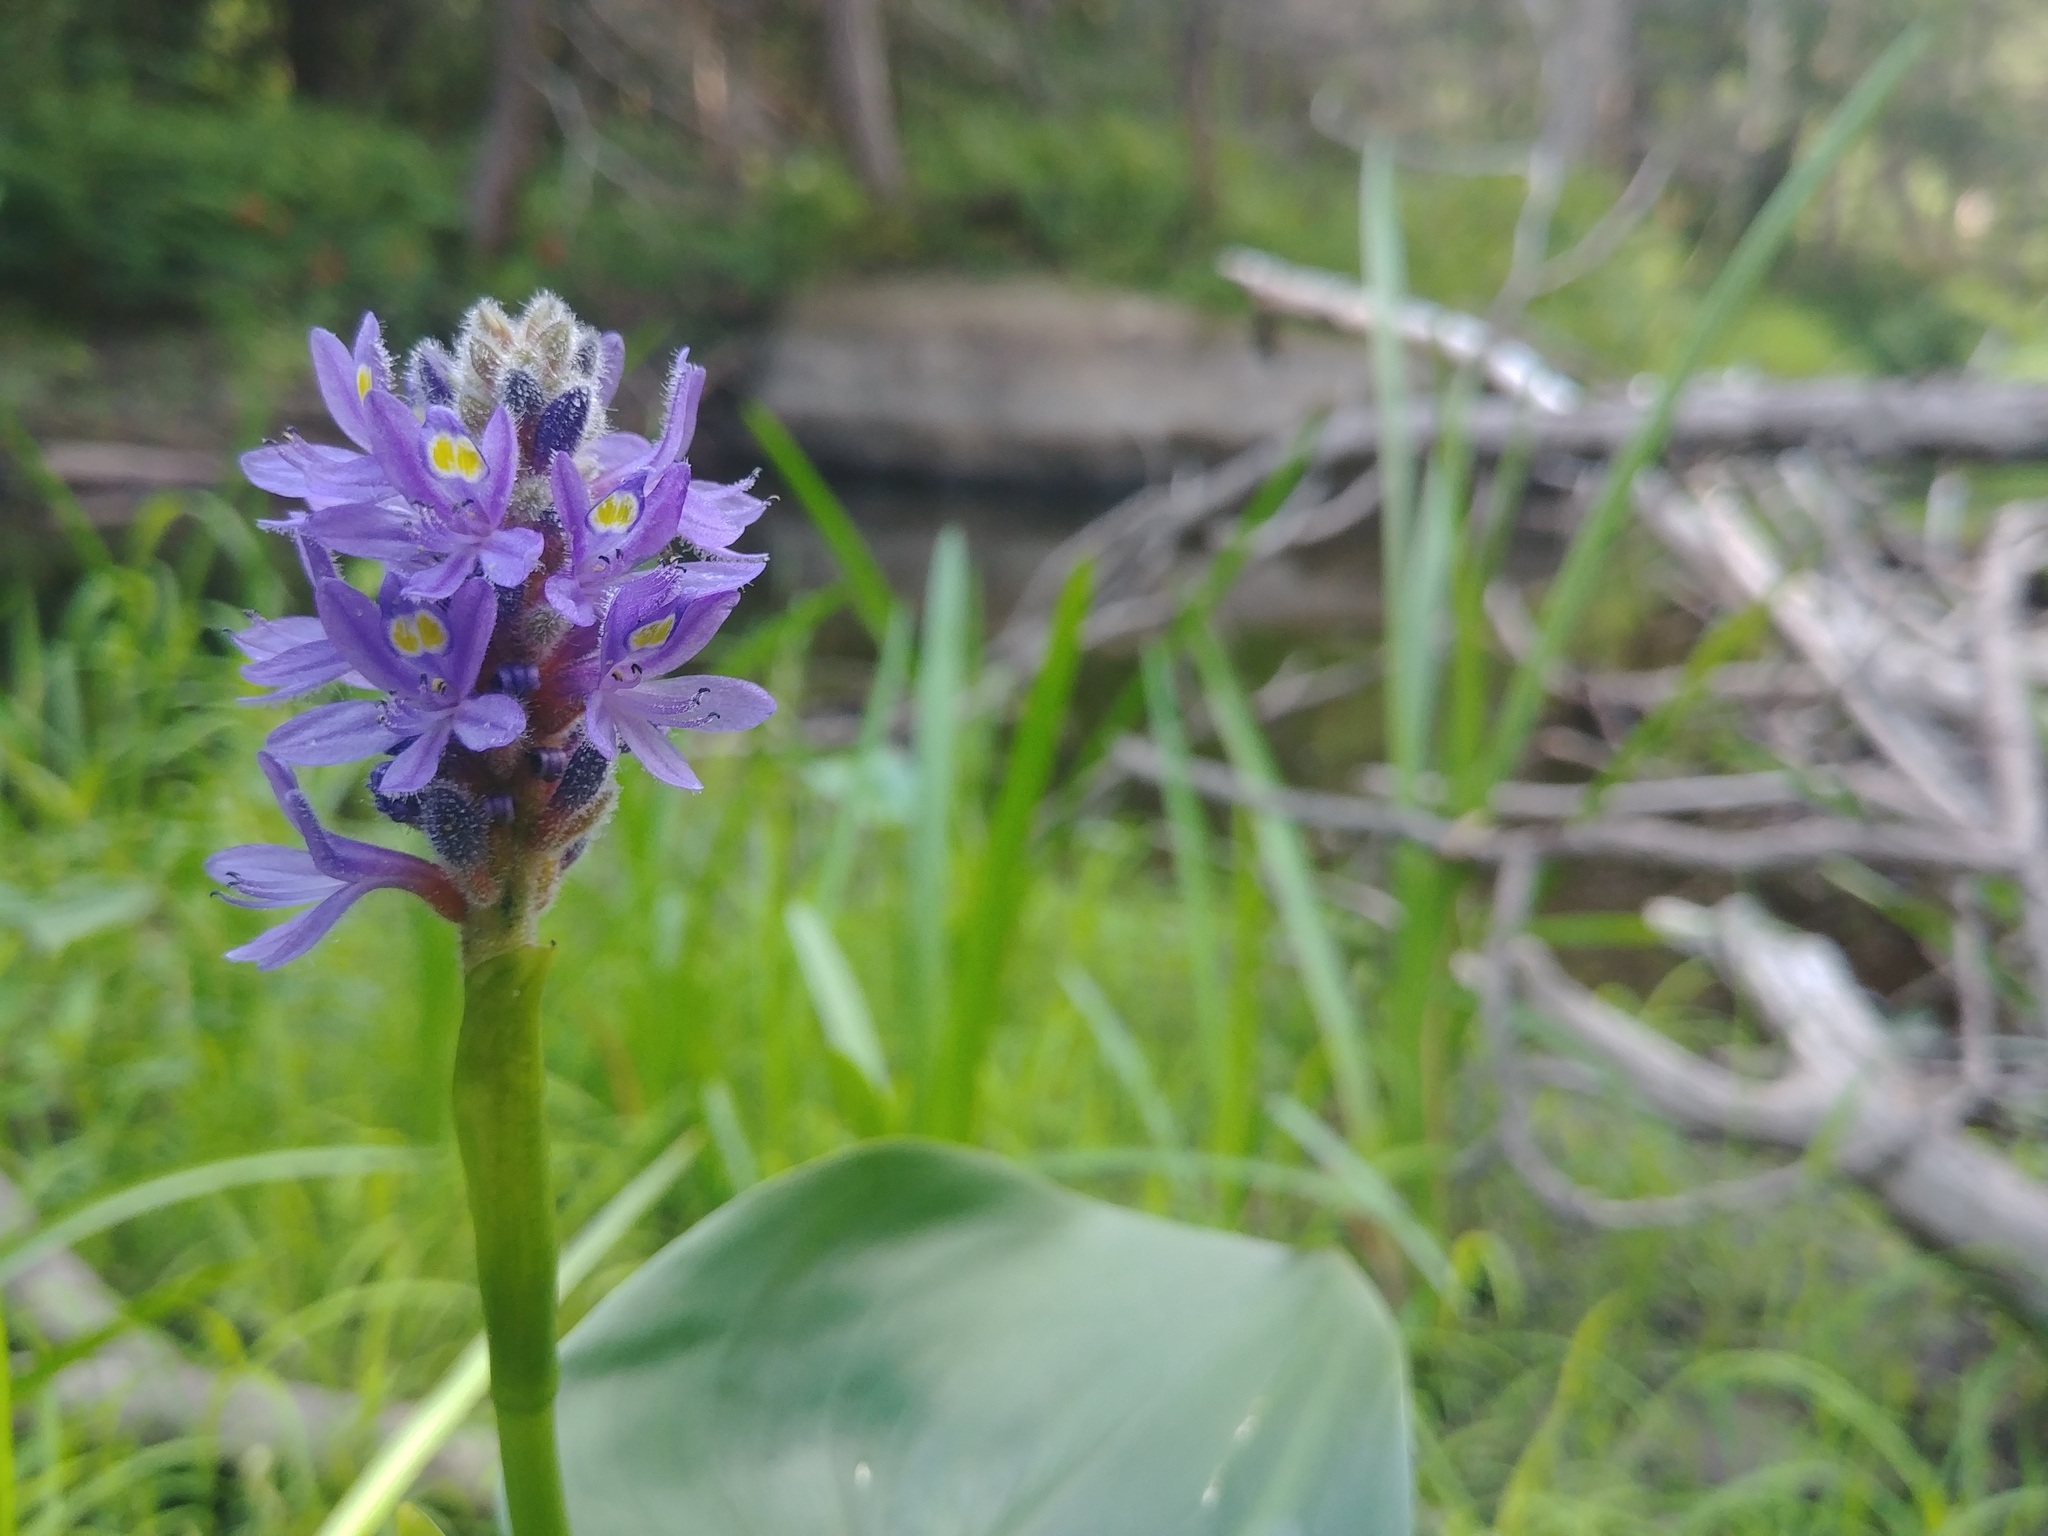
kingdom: Plantae
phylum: Tracheophyta
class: Liliopsida
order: Commelinales
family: Pontederiaceae
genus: Pontederia
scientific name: Pontederia cordata
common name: Pickerelweed
